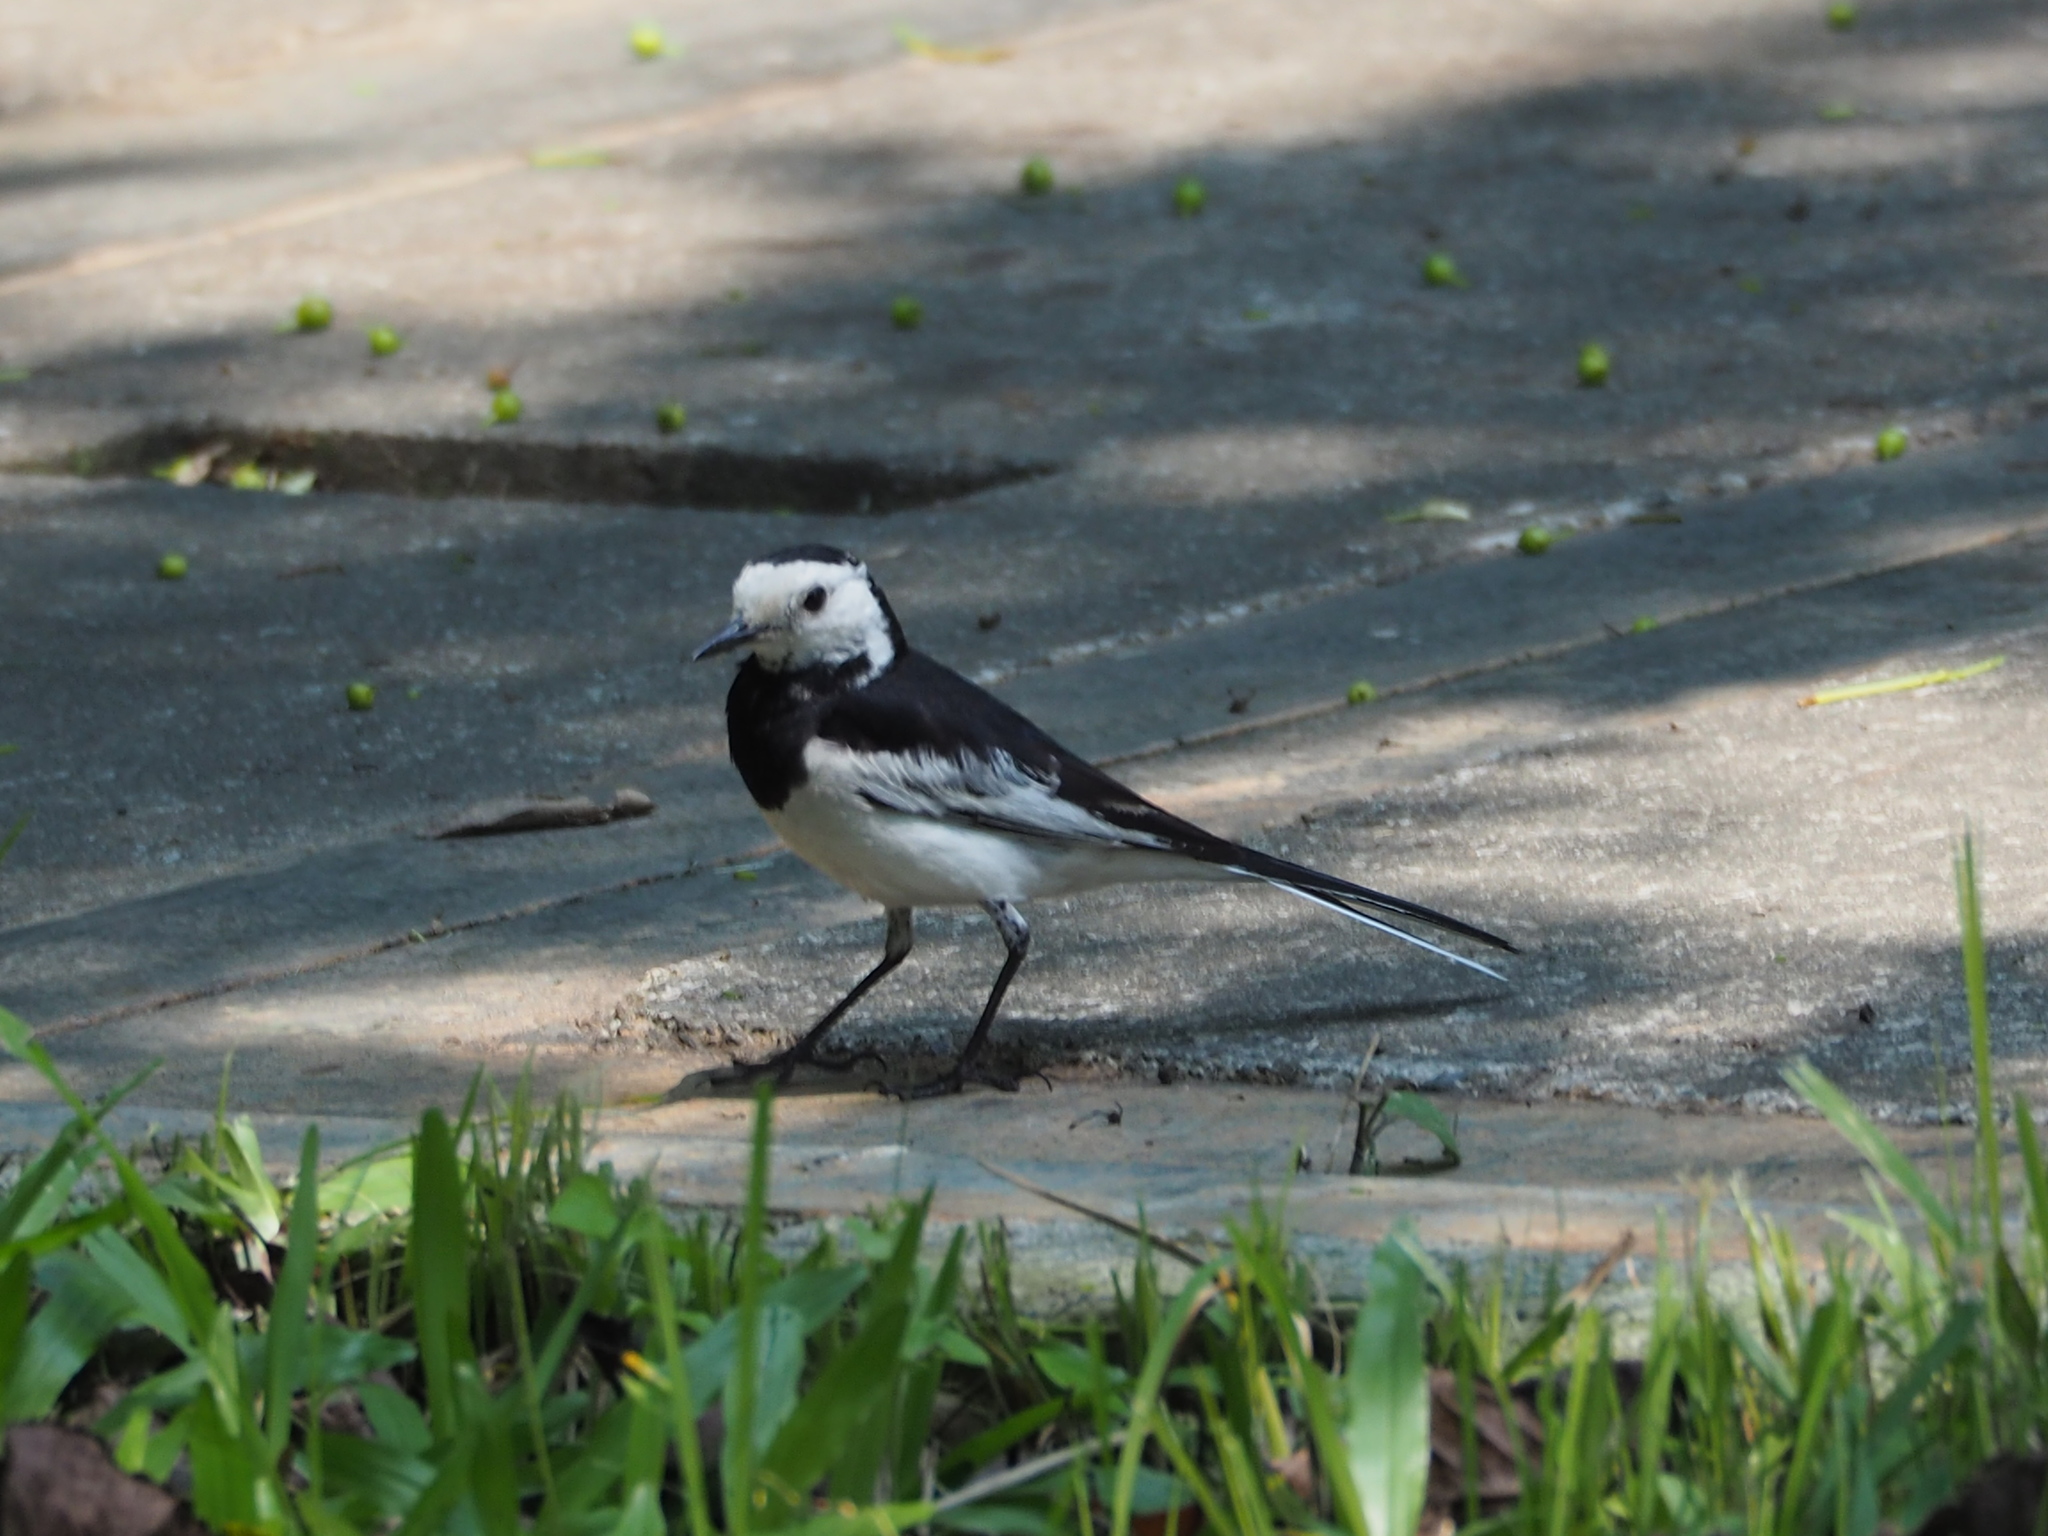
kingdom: Animalia
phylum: Chordata
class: Aves
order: Passeriformes
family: Motacillidae
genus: Motacilla
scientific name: Motacilla alba
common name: White wagtail
